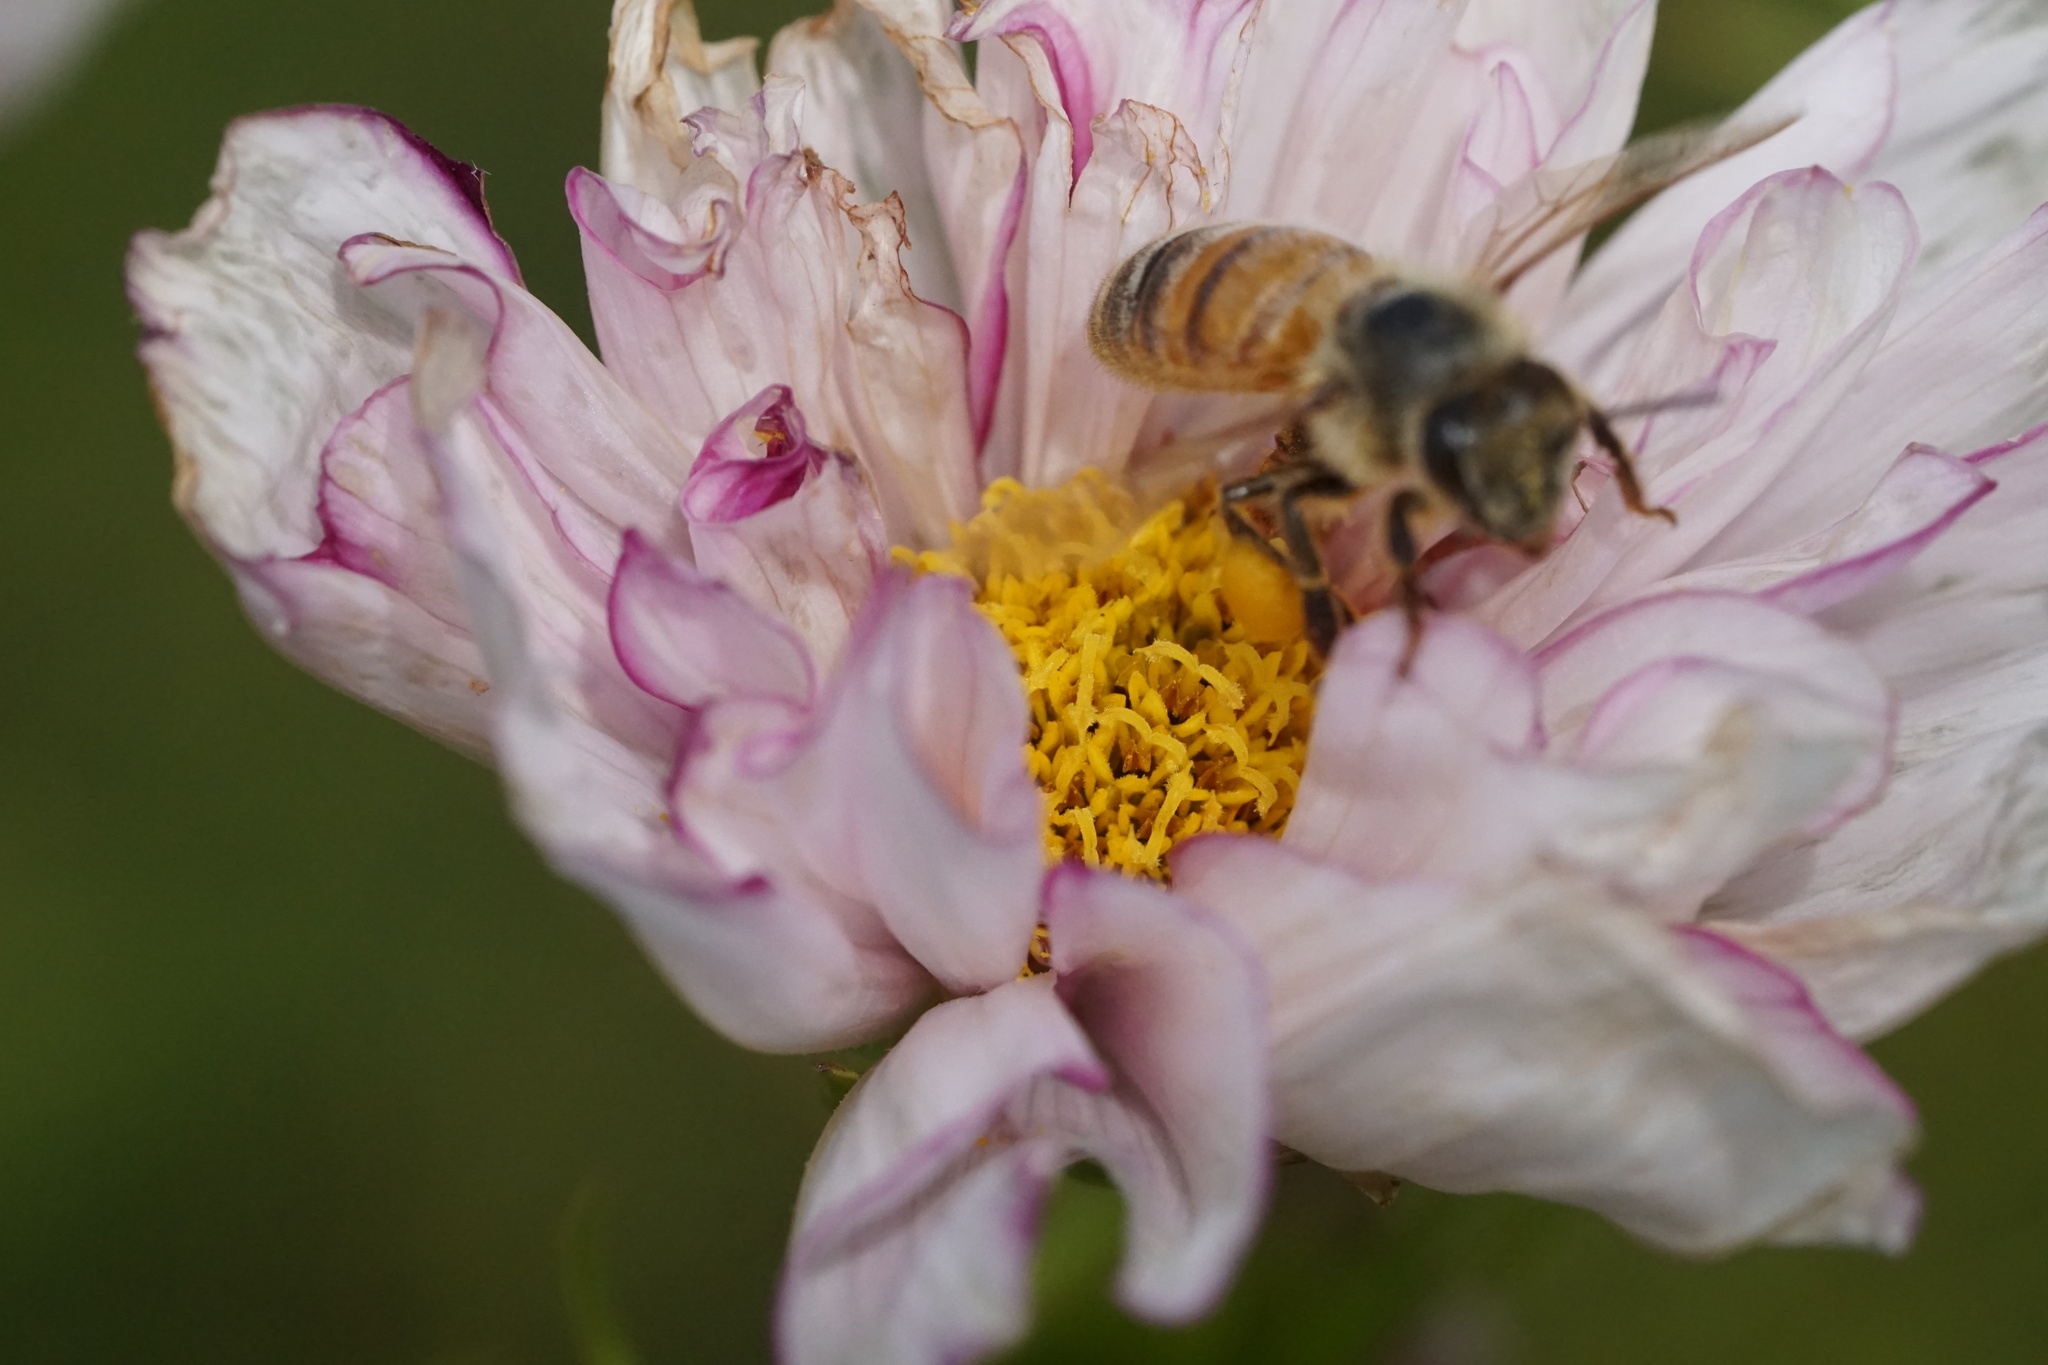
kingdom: Animalia
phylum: Arthropoda
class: Insecta
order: Hymenoptera
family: Apidae
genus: Apis
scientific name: Apis mellifera
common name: Honey bee
